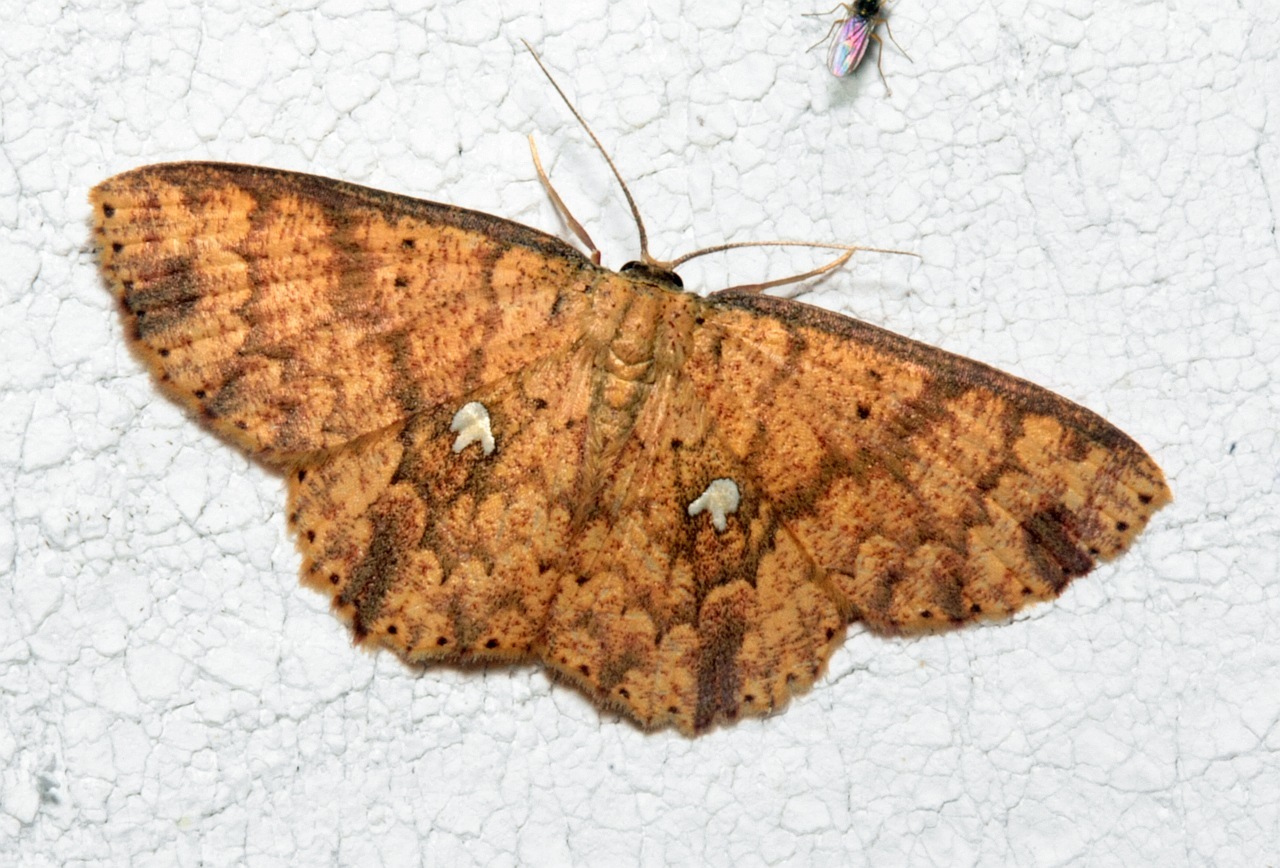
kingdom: Animalia
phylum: Arthropoda
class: Insecta
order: Lepidoptera
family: Geometridae
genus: Cyclophora
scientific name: Cyclophora nodigera
